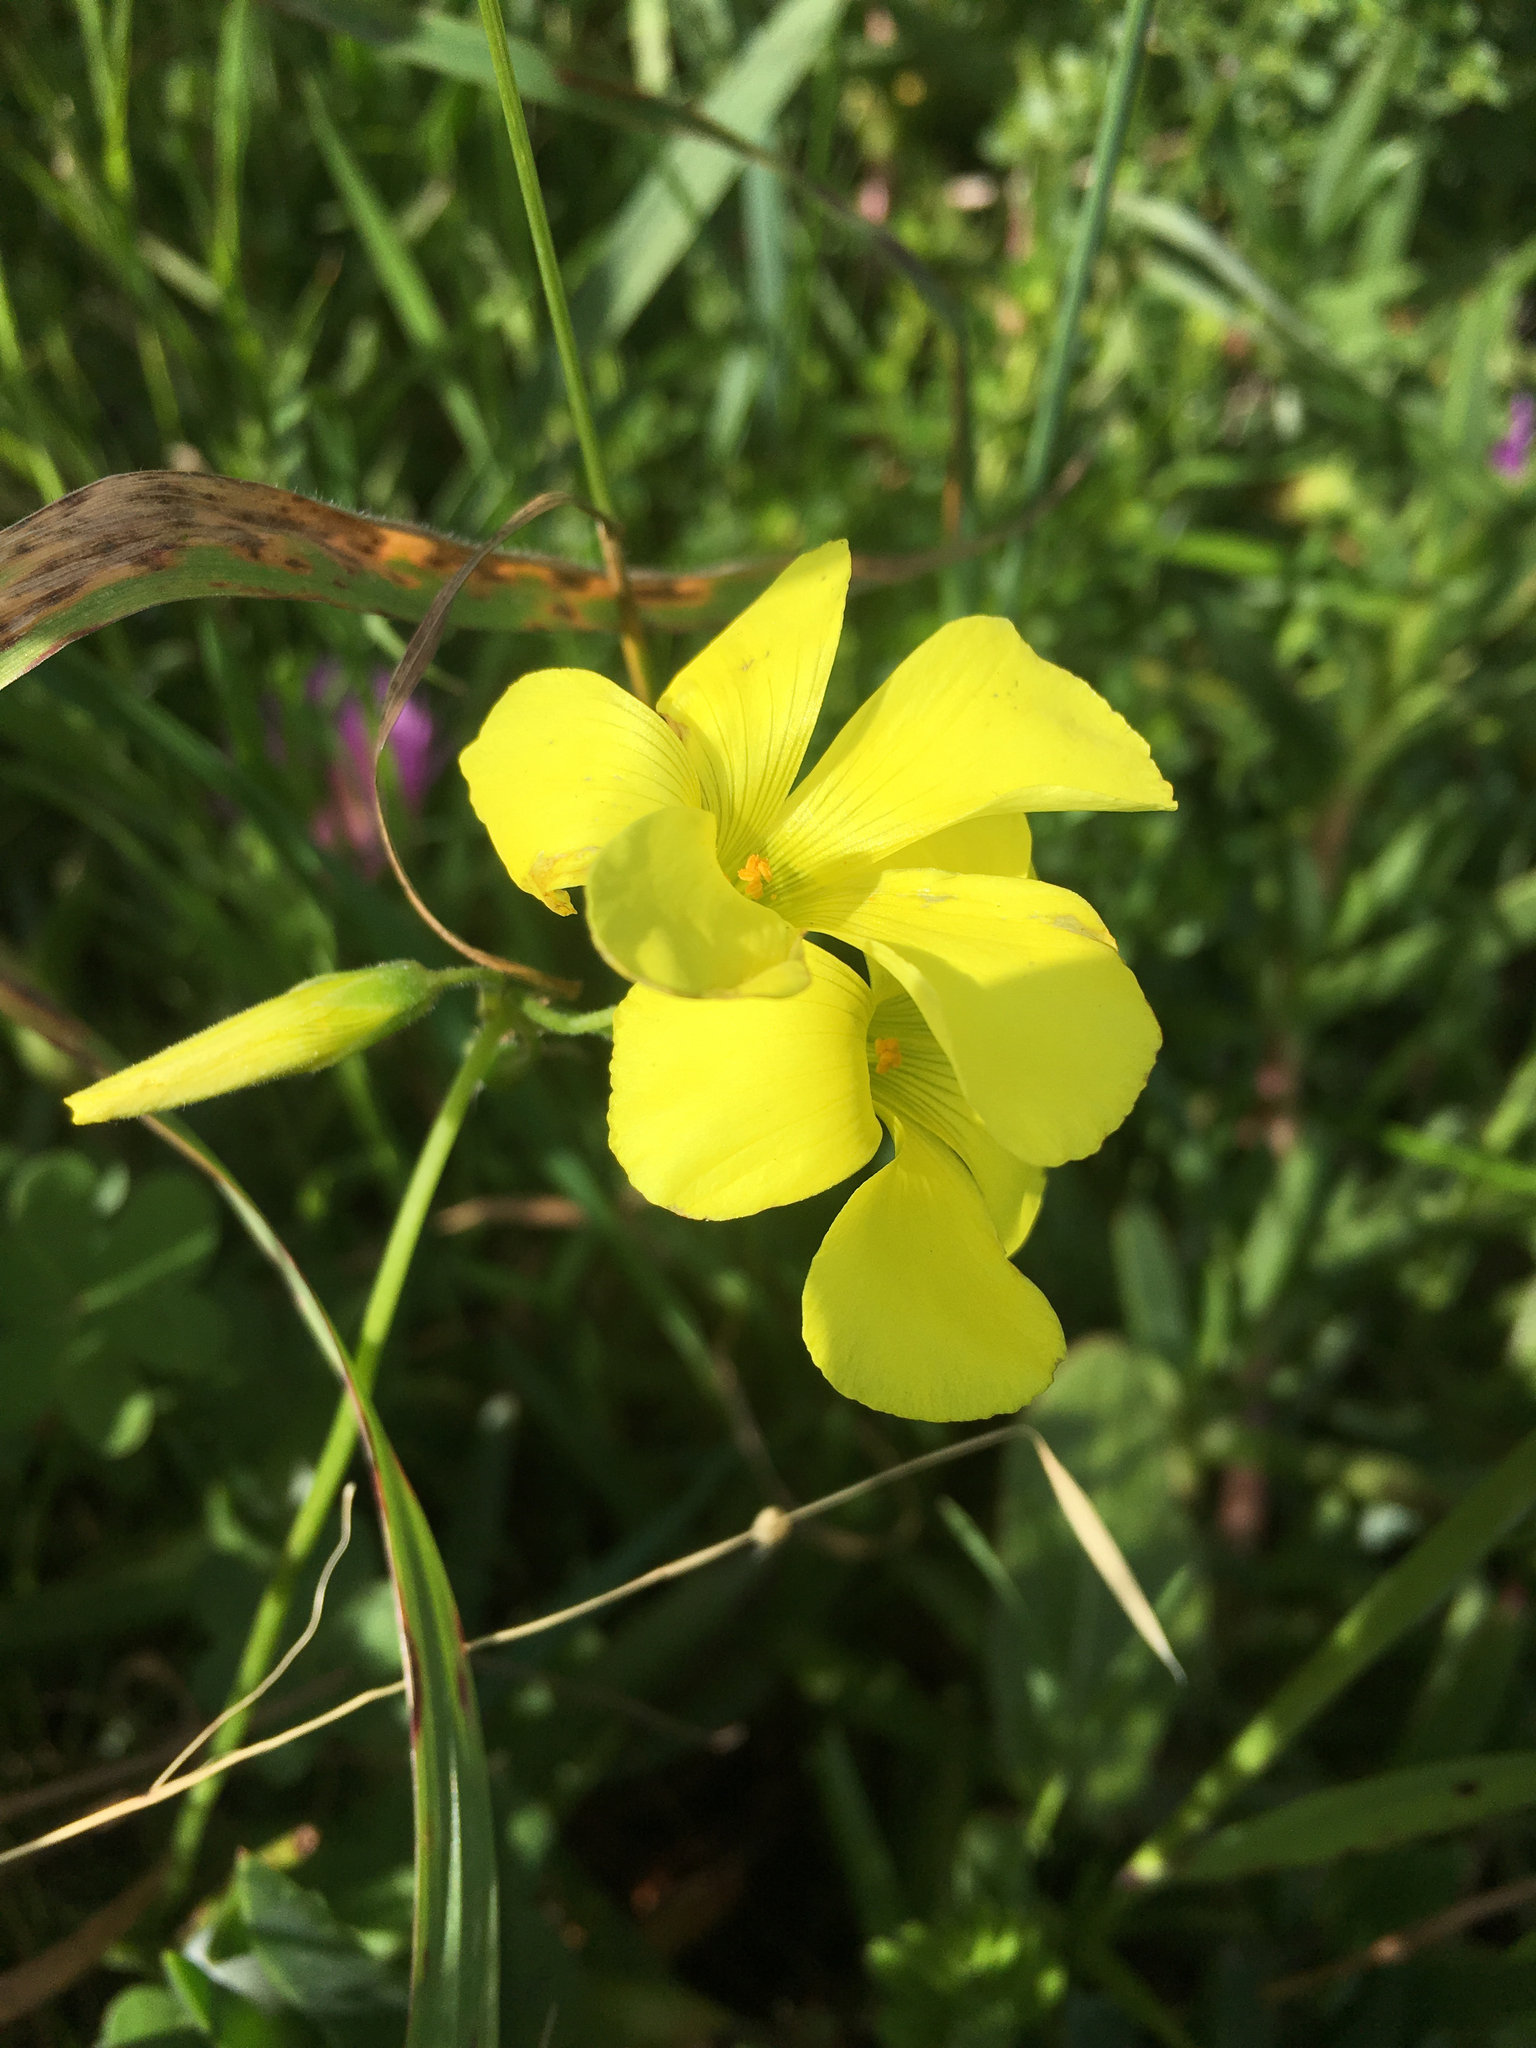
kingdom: Plantae
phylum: Tracheophyta
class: Magnoliopsida
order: Oxalidales
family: Oxalidaceae
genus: Oxalis
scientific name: Oxalis pes-caprae
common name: Bermuda-buttercup
